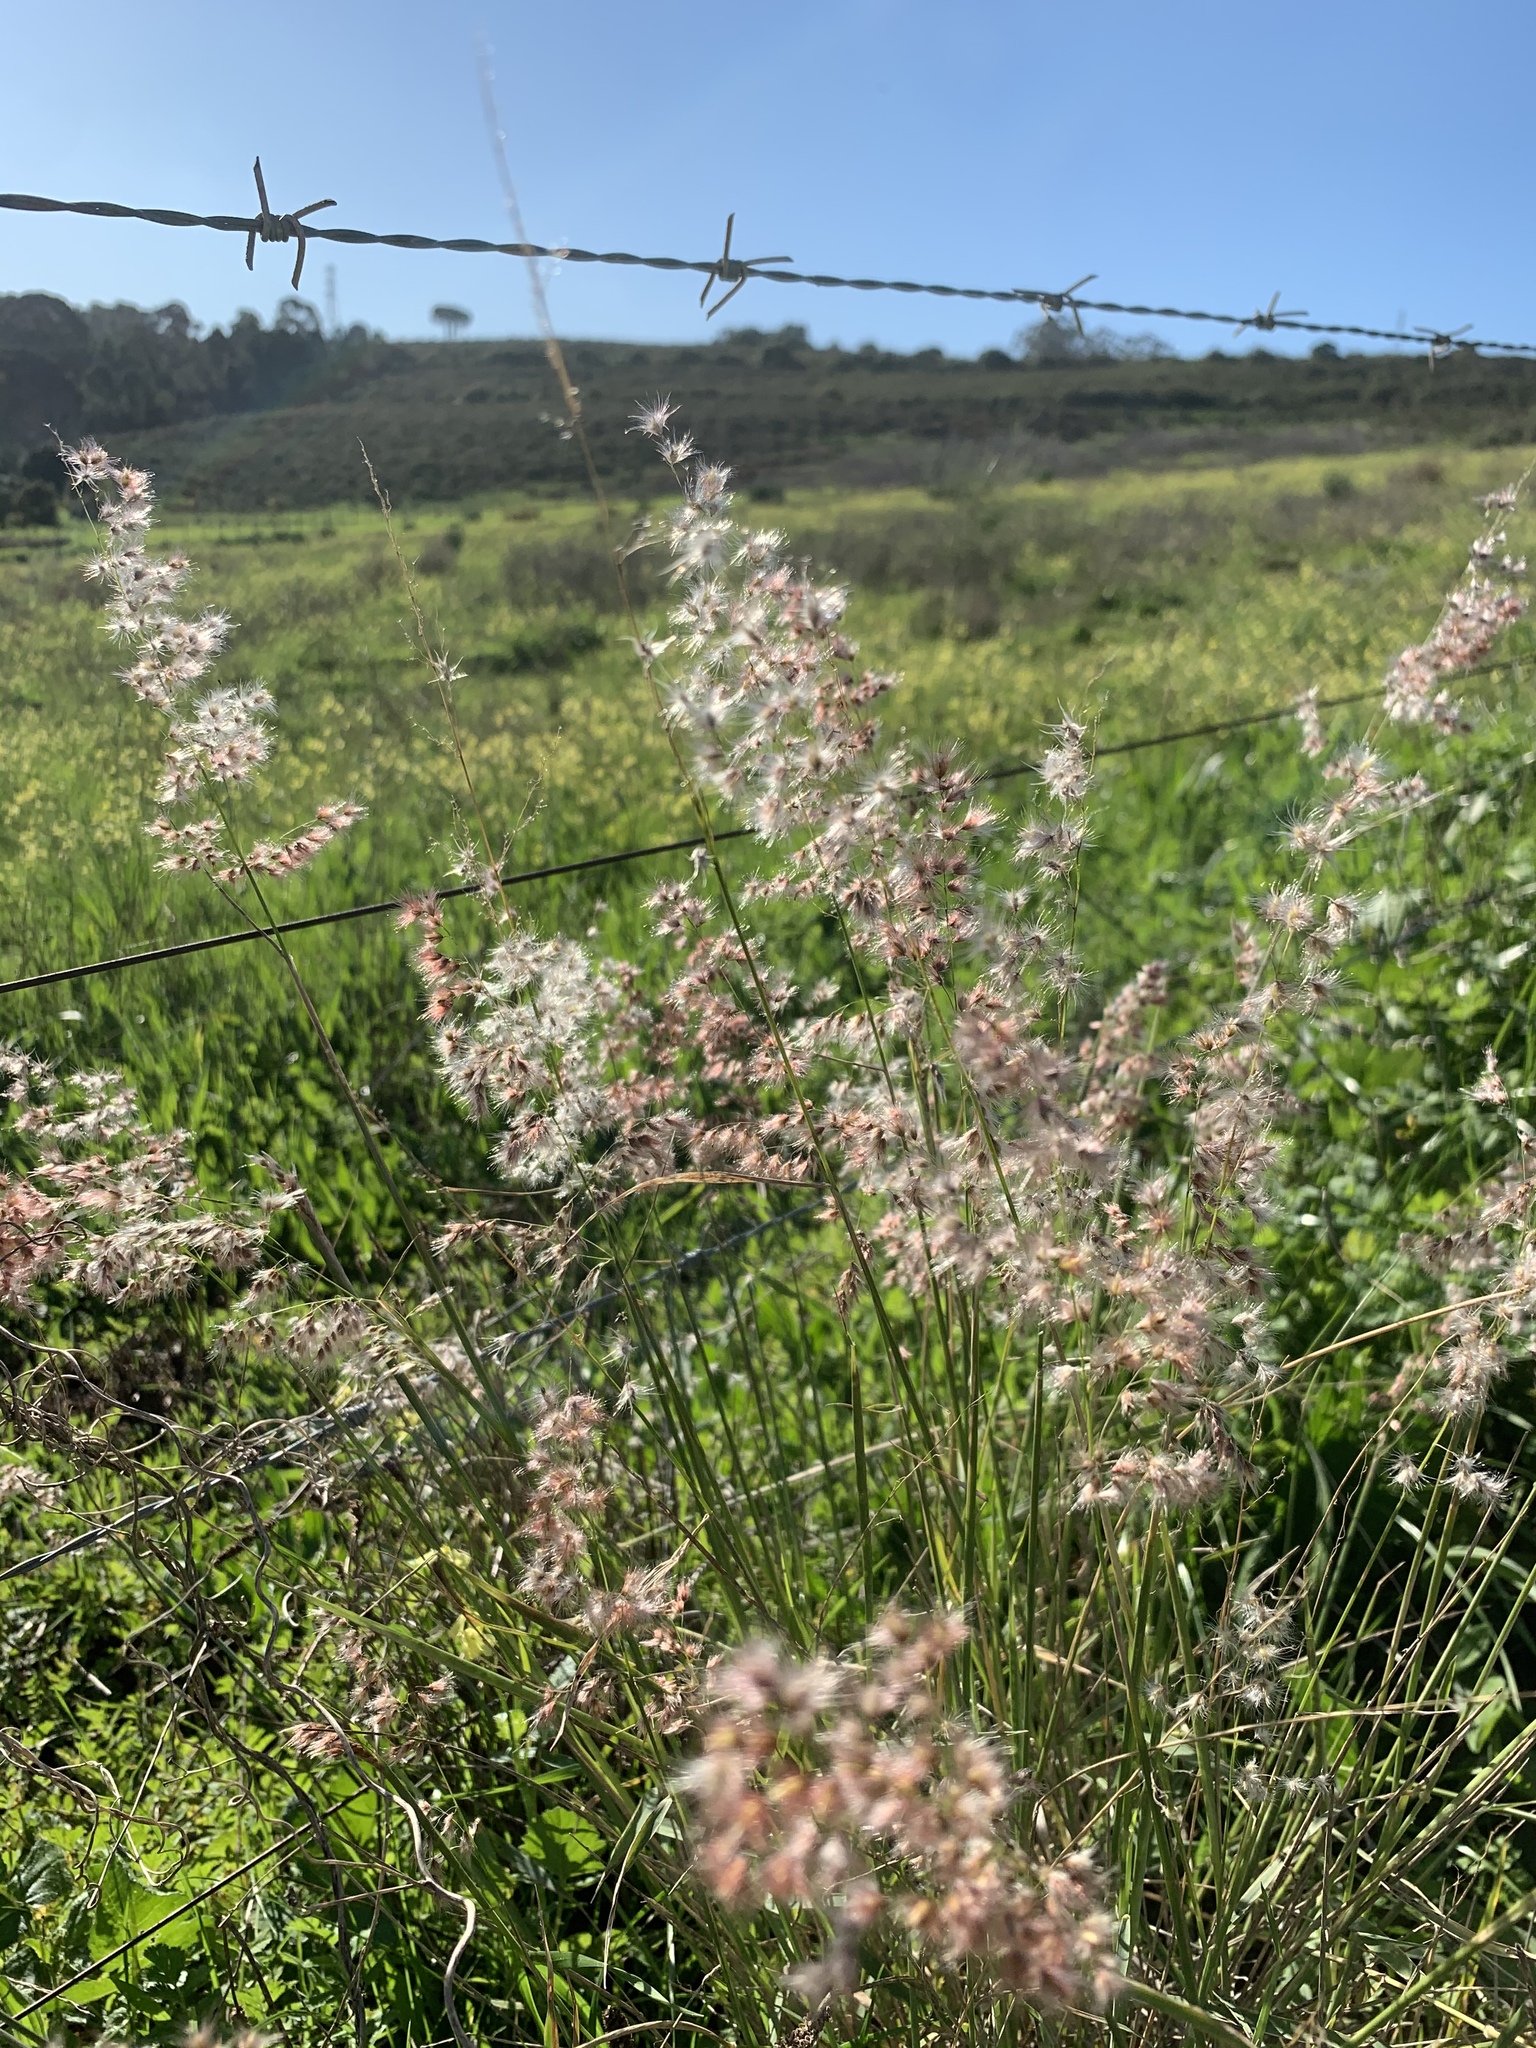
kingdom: Plantae
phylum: Tracheophyta
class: Liliopsida
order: Poales
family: Poaceae
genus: Melinis
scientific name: Melinis repens
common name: Rose natal grass
